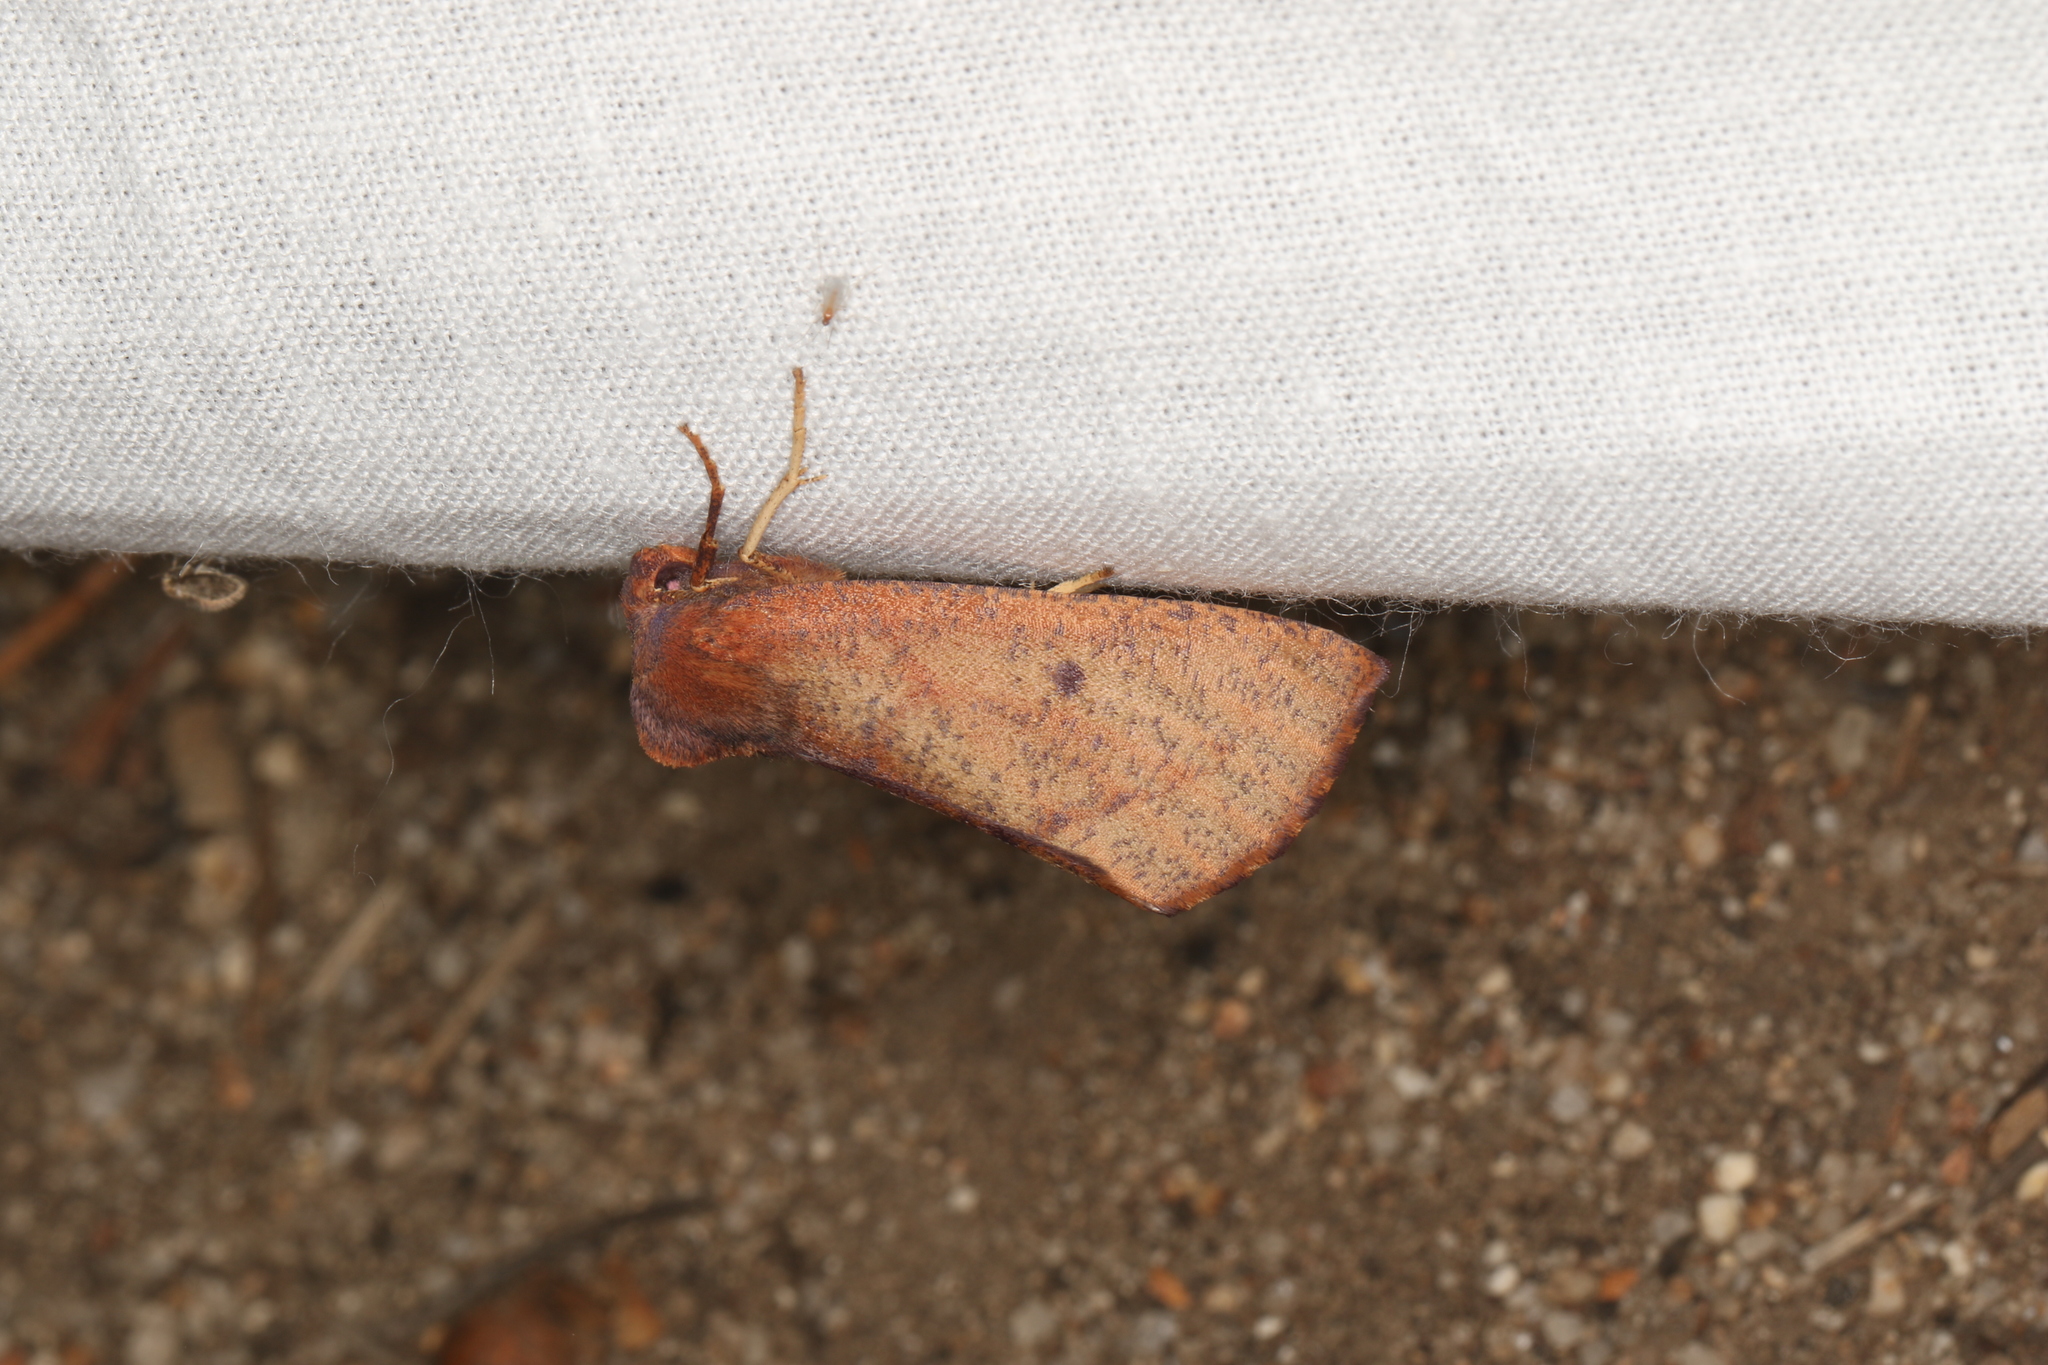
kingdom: Animalia
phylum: Arthropoda
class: Insecta
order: Lepidoptera
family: Geometridae
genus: Fisera
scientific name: Fisera hypoleuca
